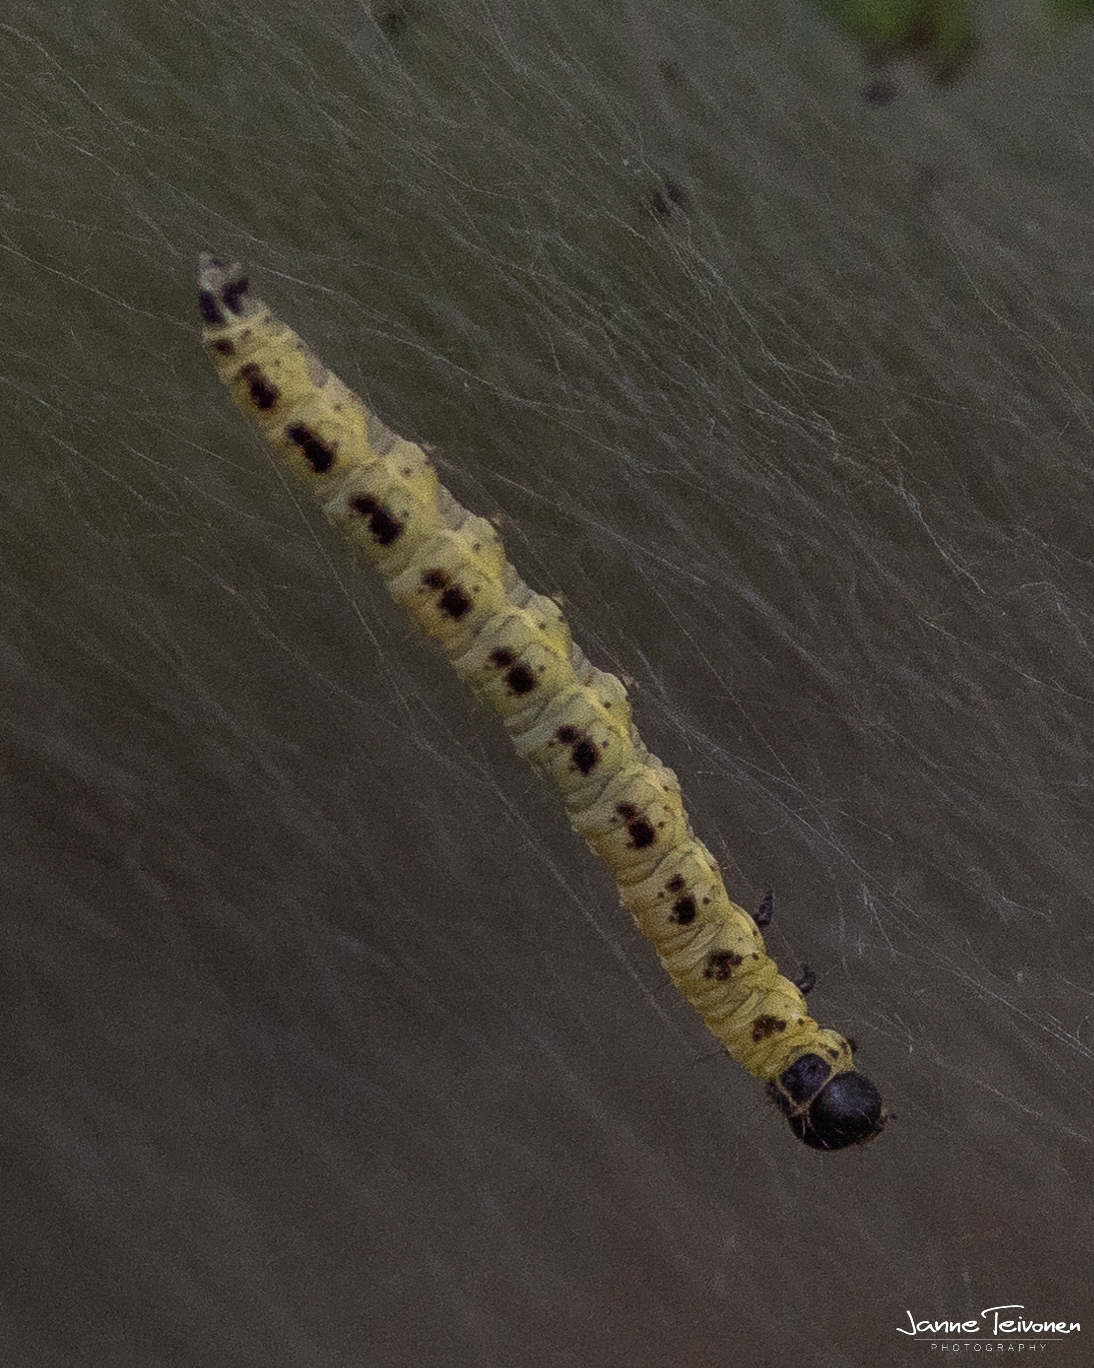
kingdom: Animalia
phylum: Arthropoda
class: Insecta
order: Lepidoptera
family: Yponomeutidae
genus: Yponomeuta
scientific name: Yponomeuta evonymella
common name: Bird-cherry ermine
